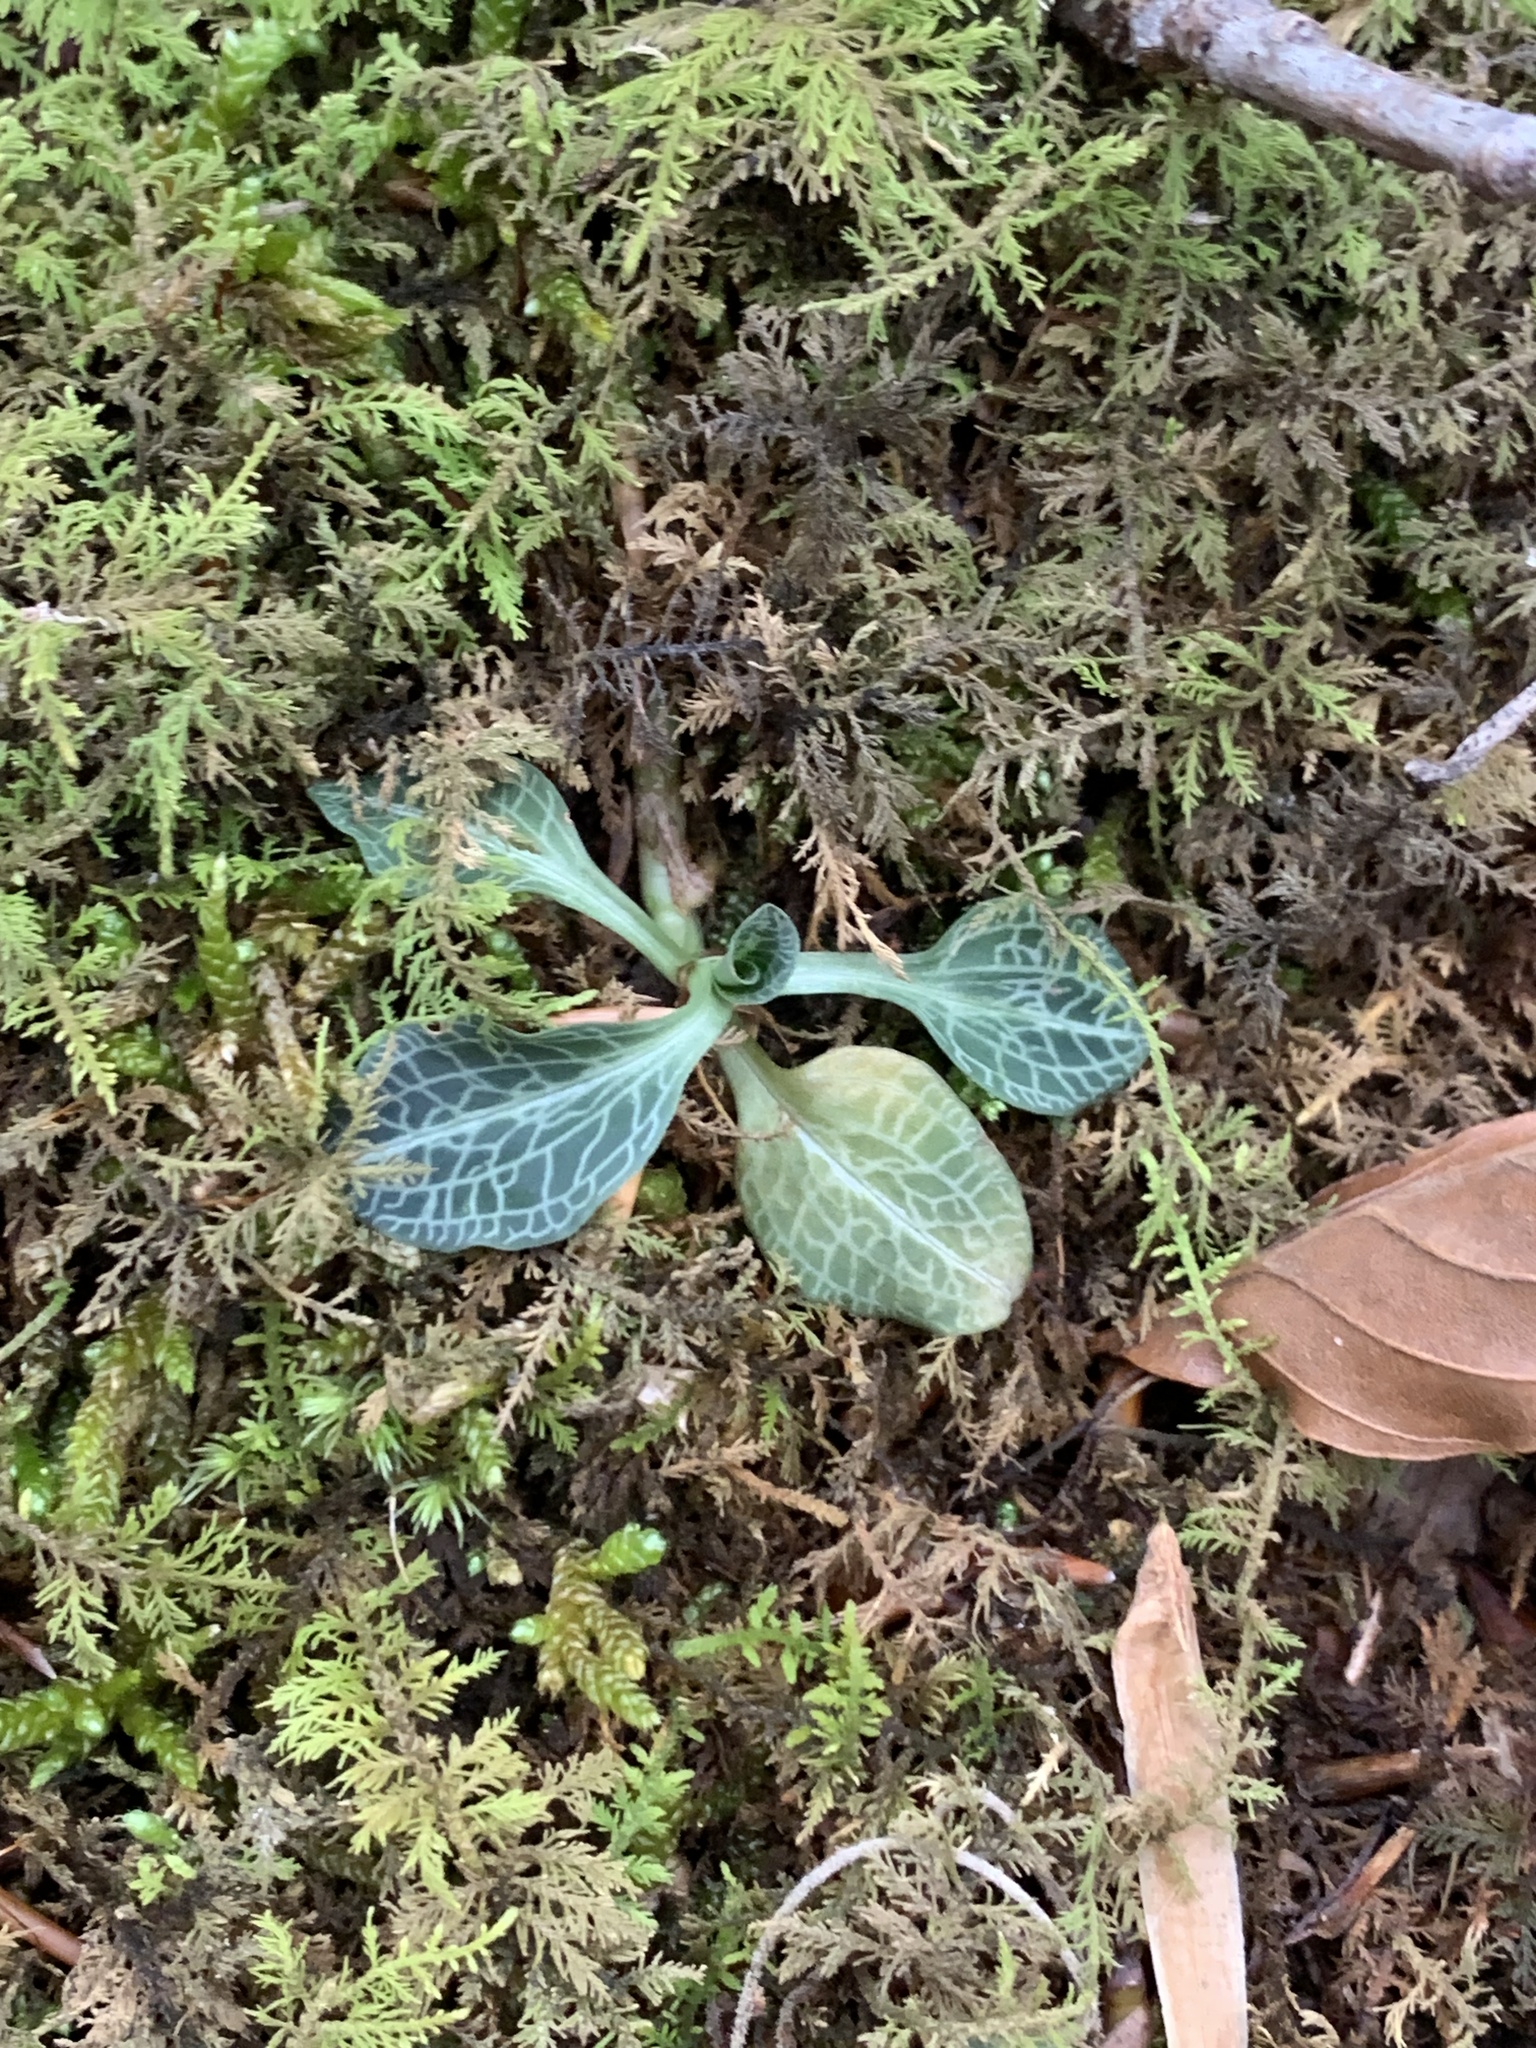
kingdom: Plantae
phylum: Tracheophyta
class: Liliopsida
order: Asparagales
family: Orchidaceae
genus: Goodyera
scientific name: Goodyera pubescens
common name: Downy rattlesnake-plantain
